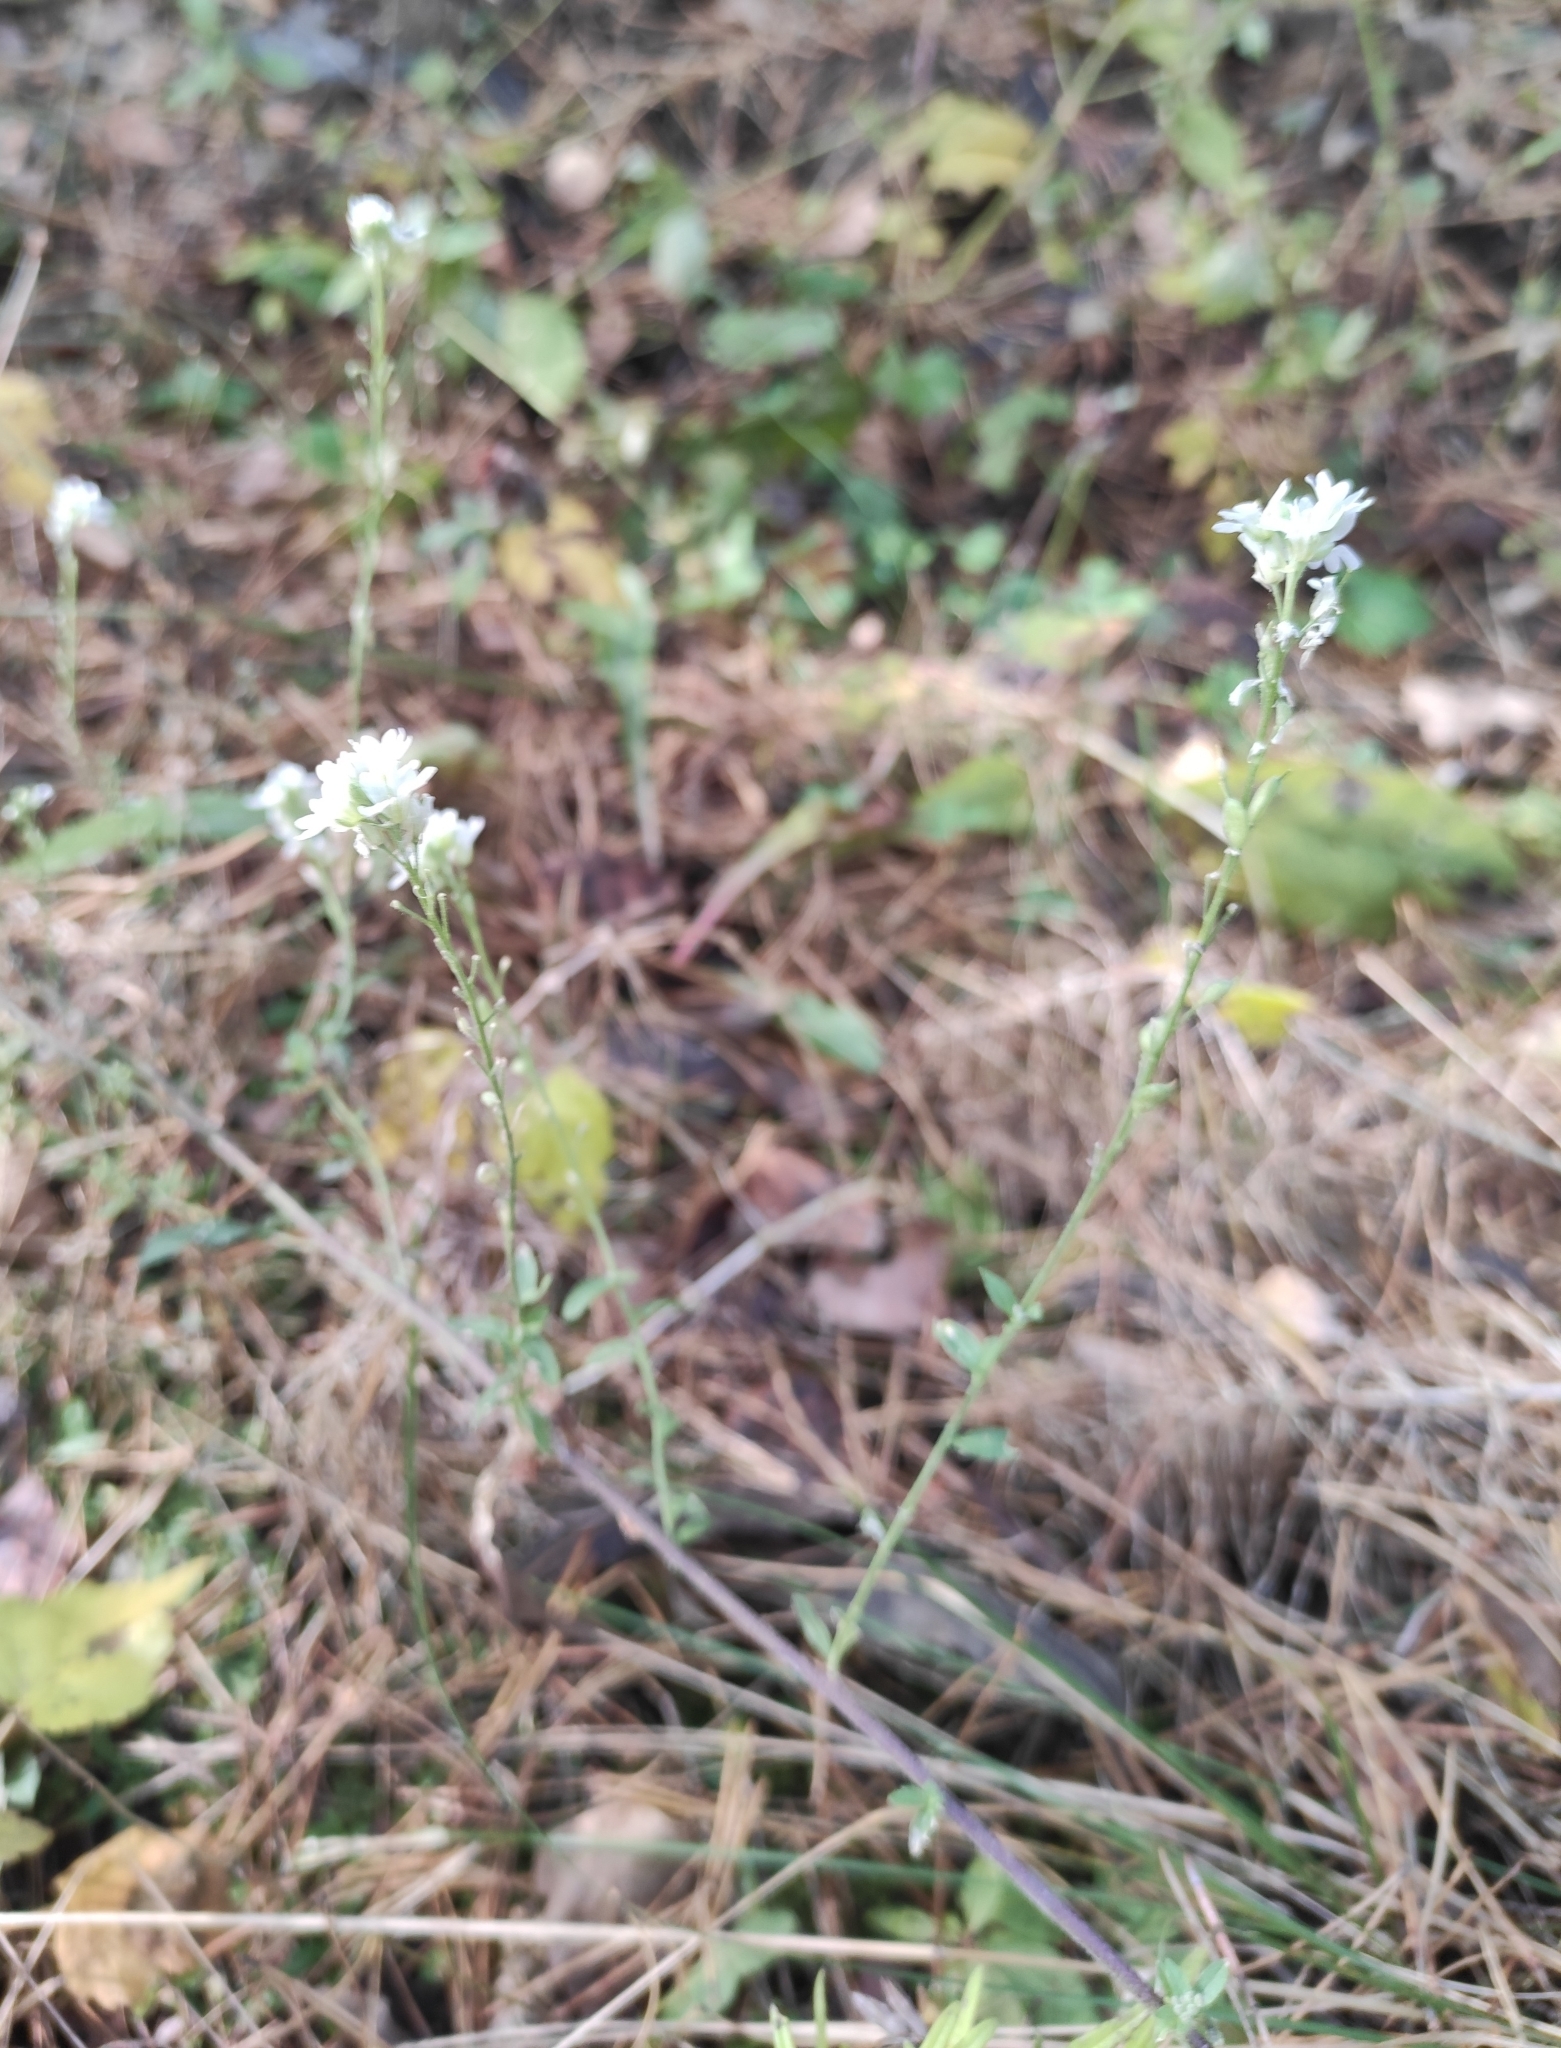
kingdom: Plantae
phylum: Tracheophyta
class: Magnoliopsida
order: Brassicales
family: Brassicaceae
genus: Berteroa
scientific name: Berteroa incana
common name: Hoary alison
